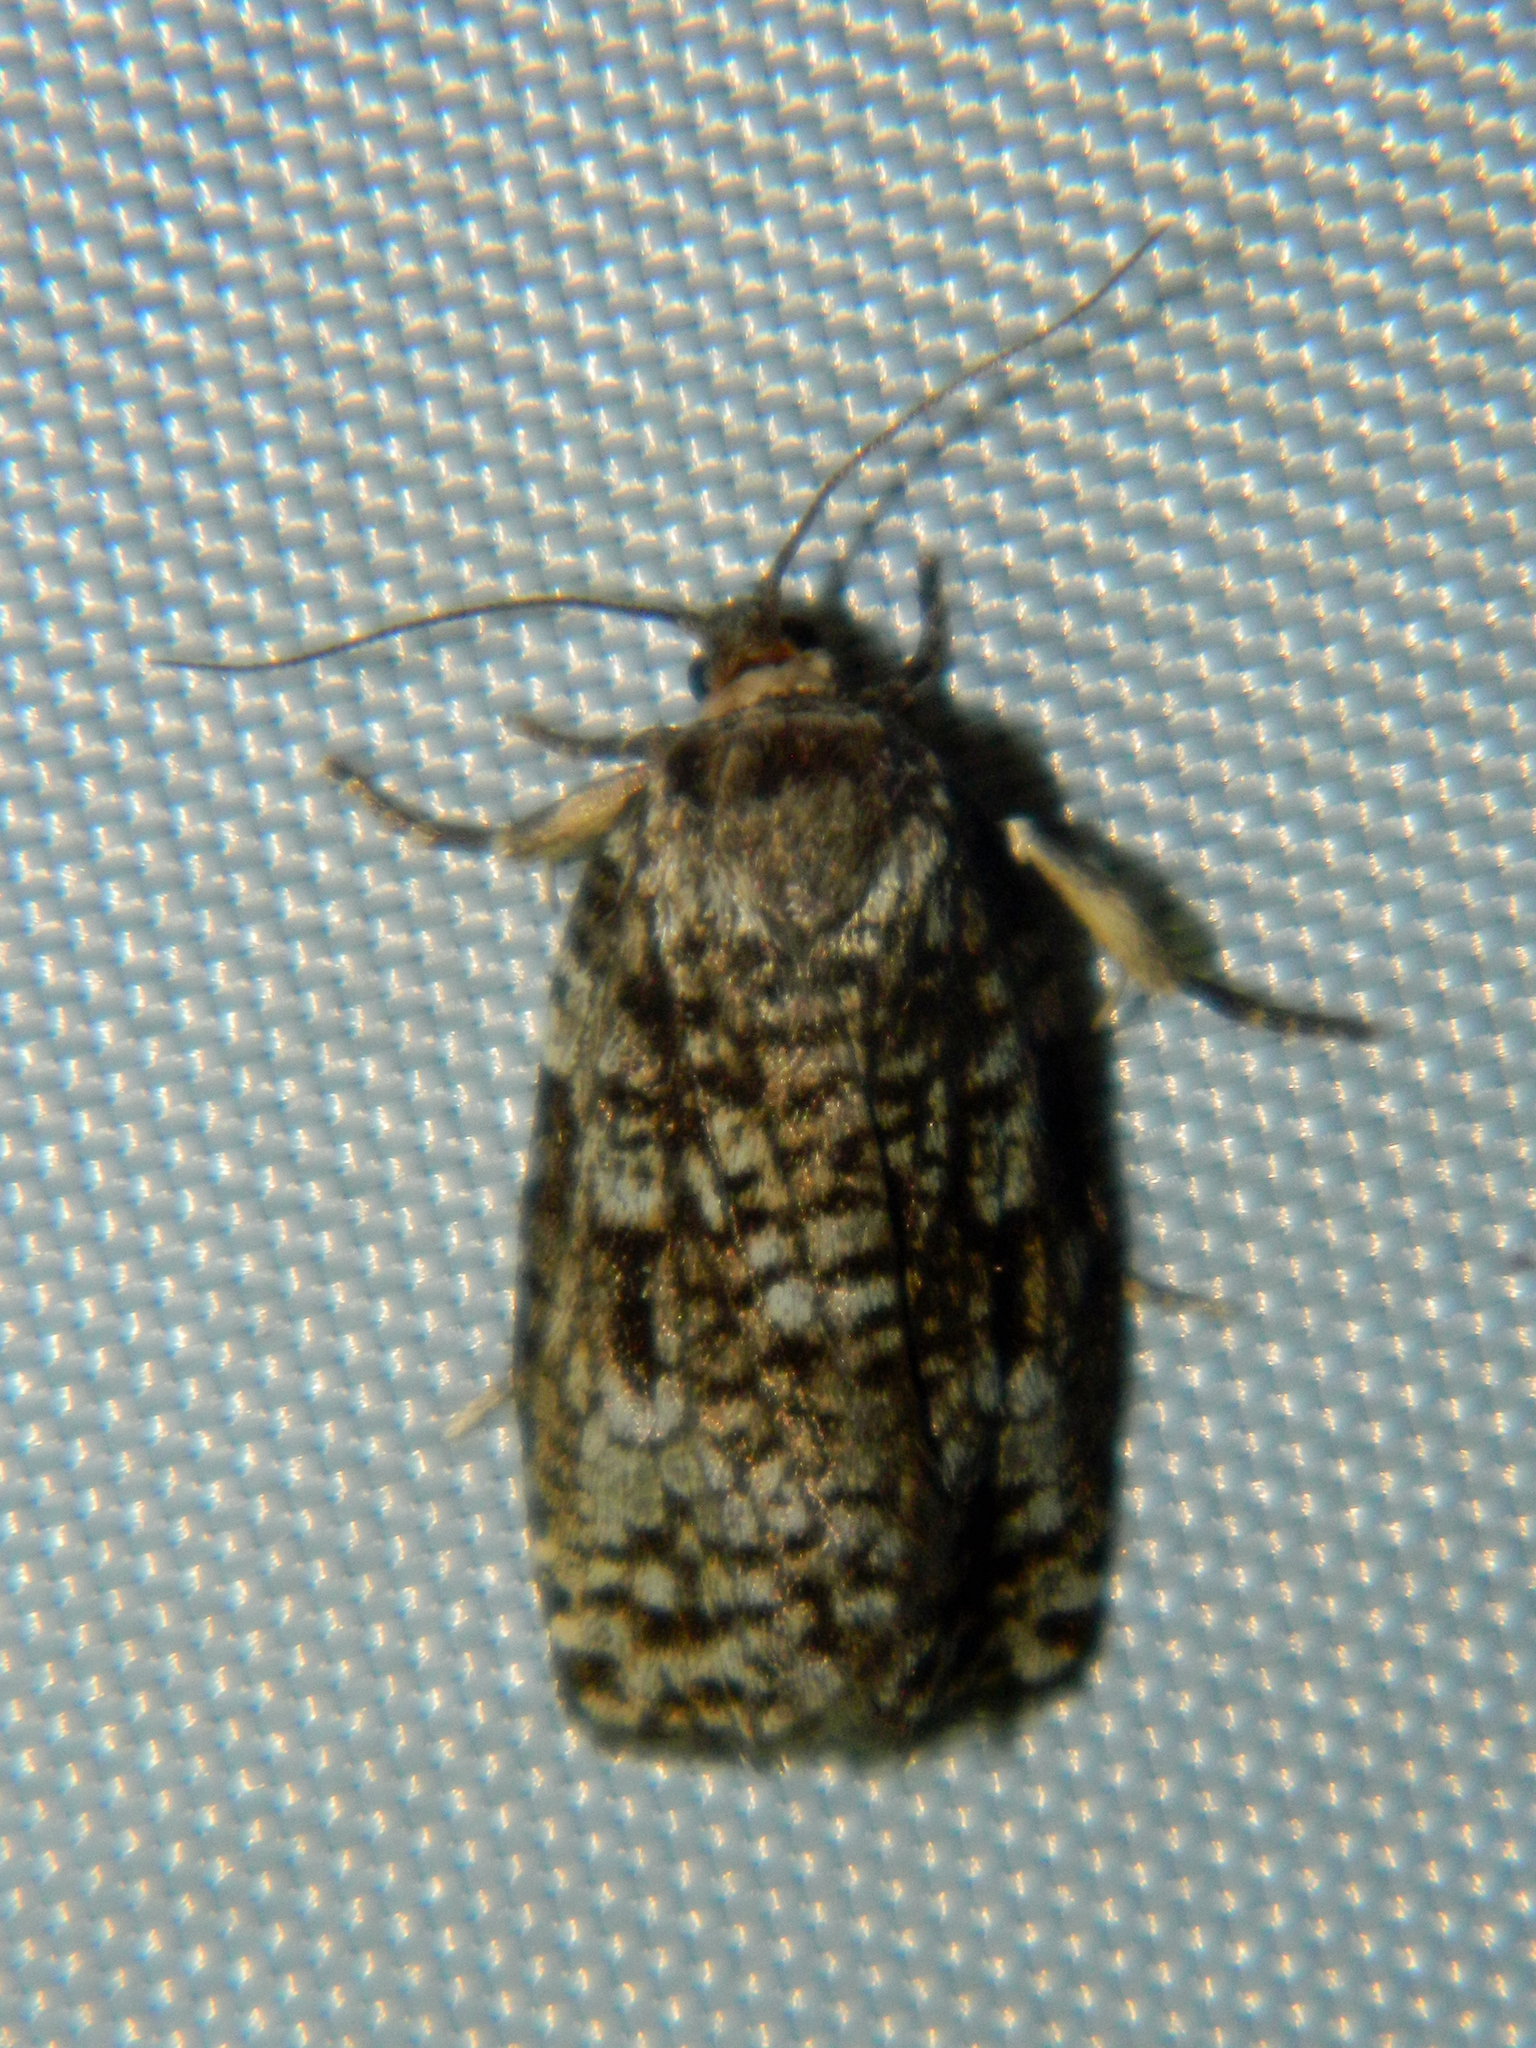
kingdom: Animalia
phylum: Arthropoda
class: Insecta
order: Lepidoptera
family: Tortricidae
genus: Choristoneura
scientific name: Choristoneura fumiferana
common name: Spruce budworm
